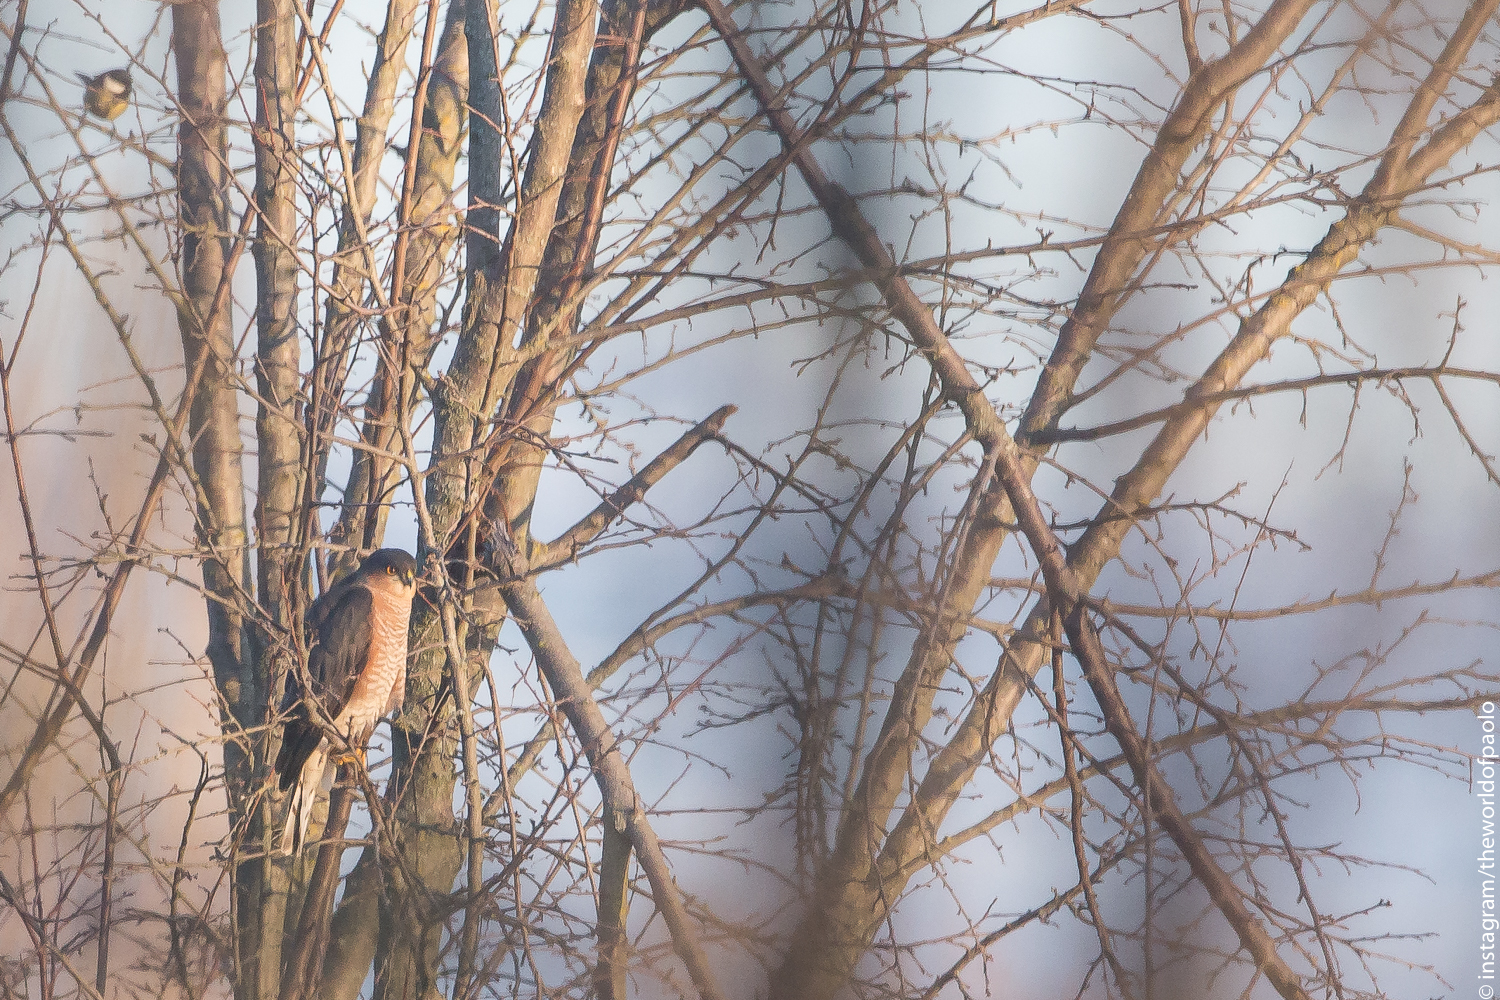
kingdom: Animalia
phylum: Chordata
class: Aves
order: Accipitriformes
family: Accipitridae
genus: Accipiter
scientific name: Accipiter nisus
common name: Eurasian sparrowhawk
